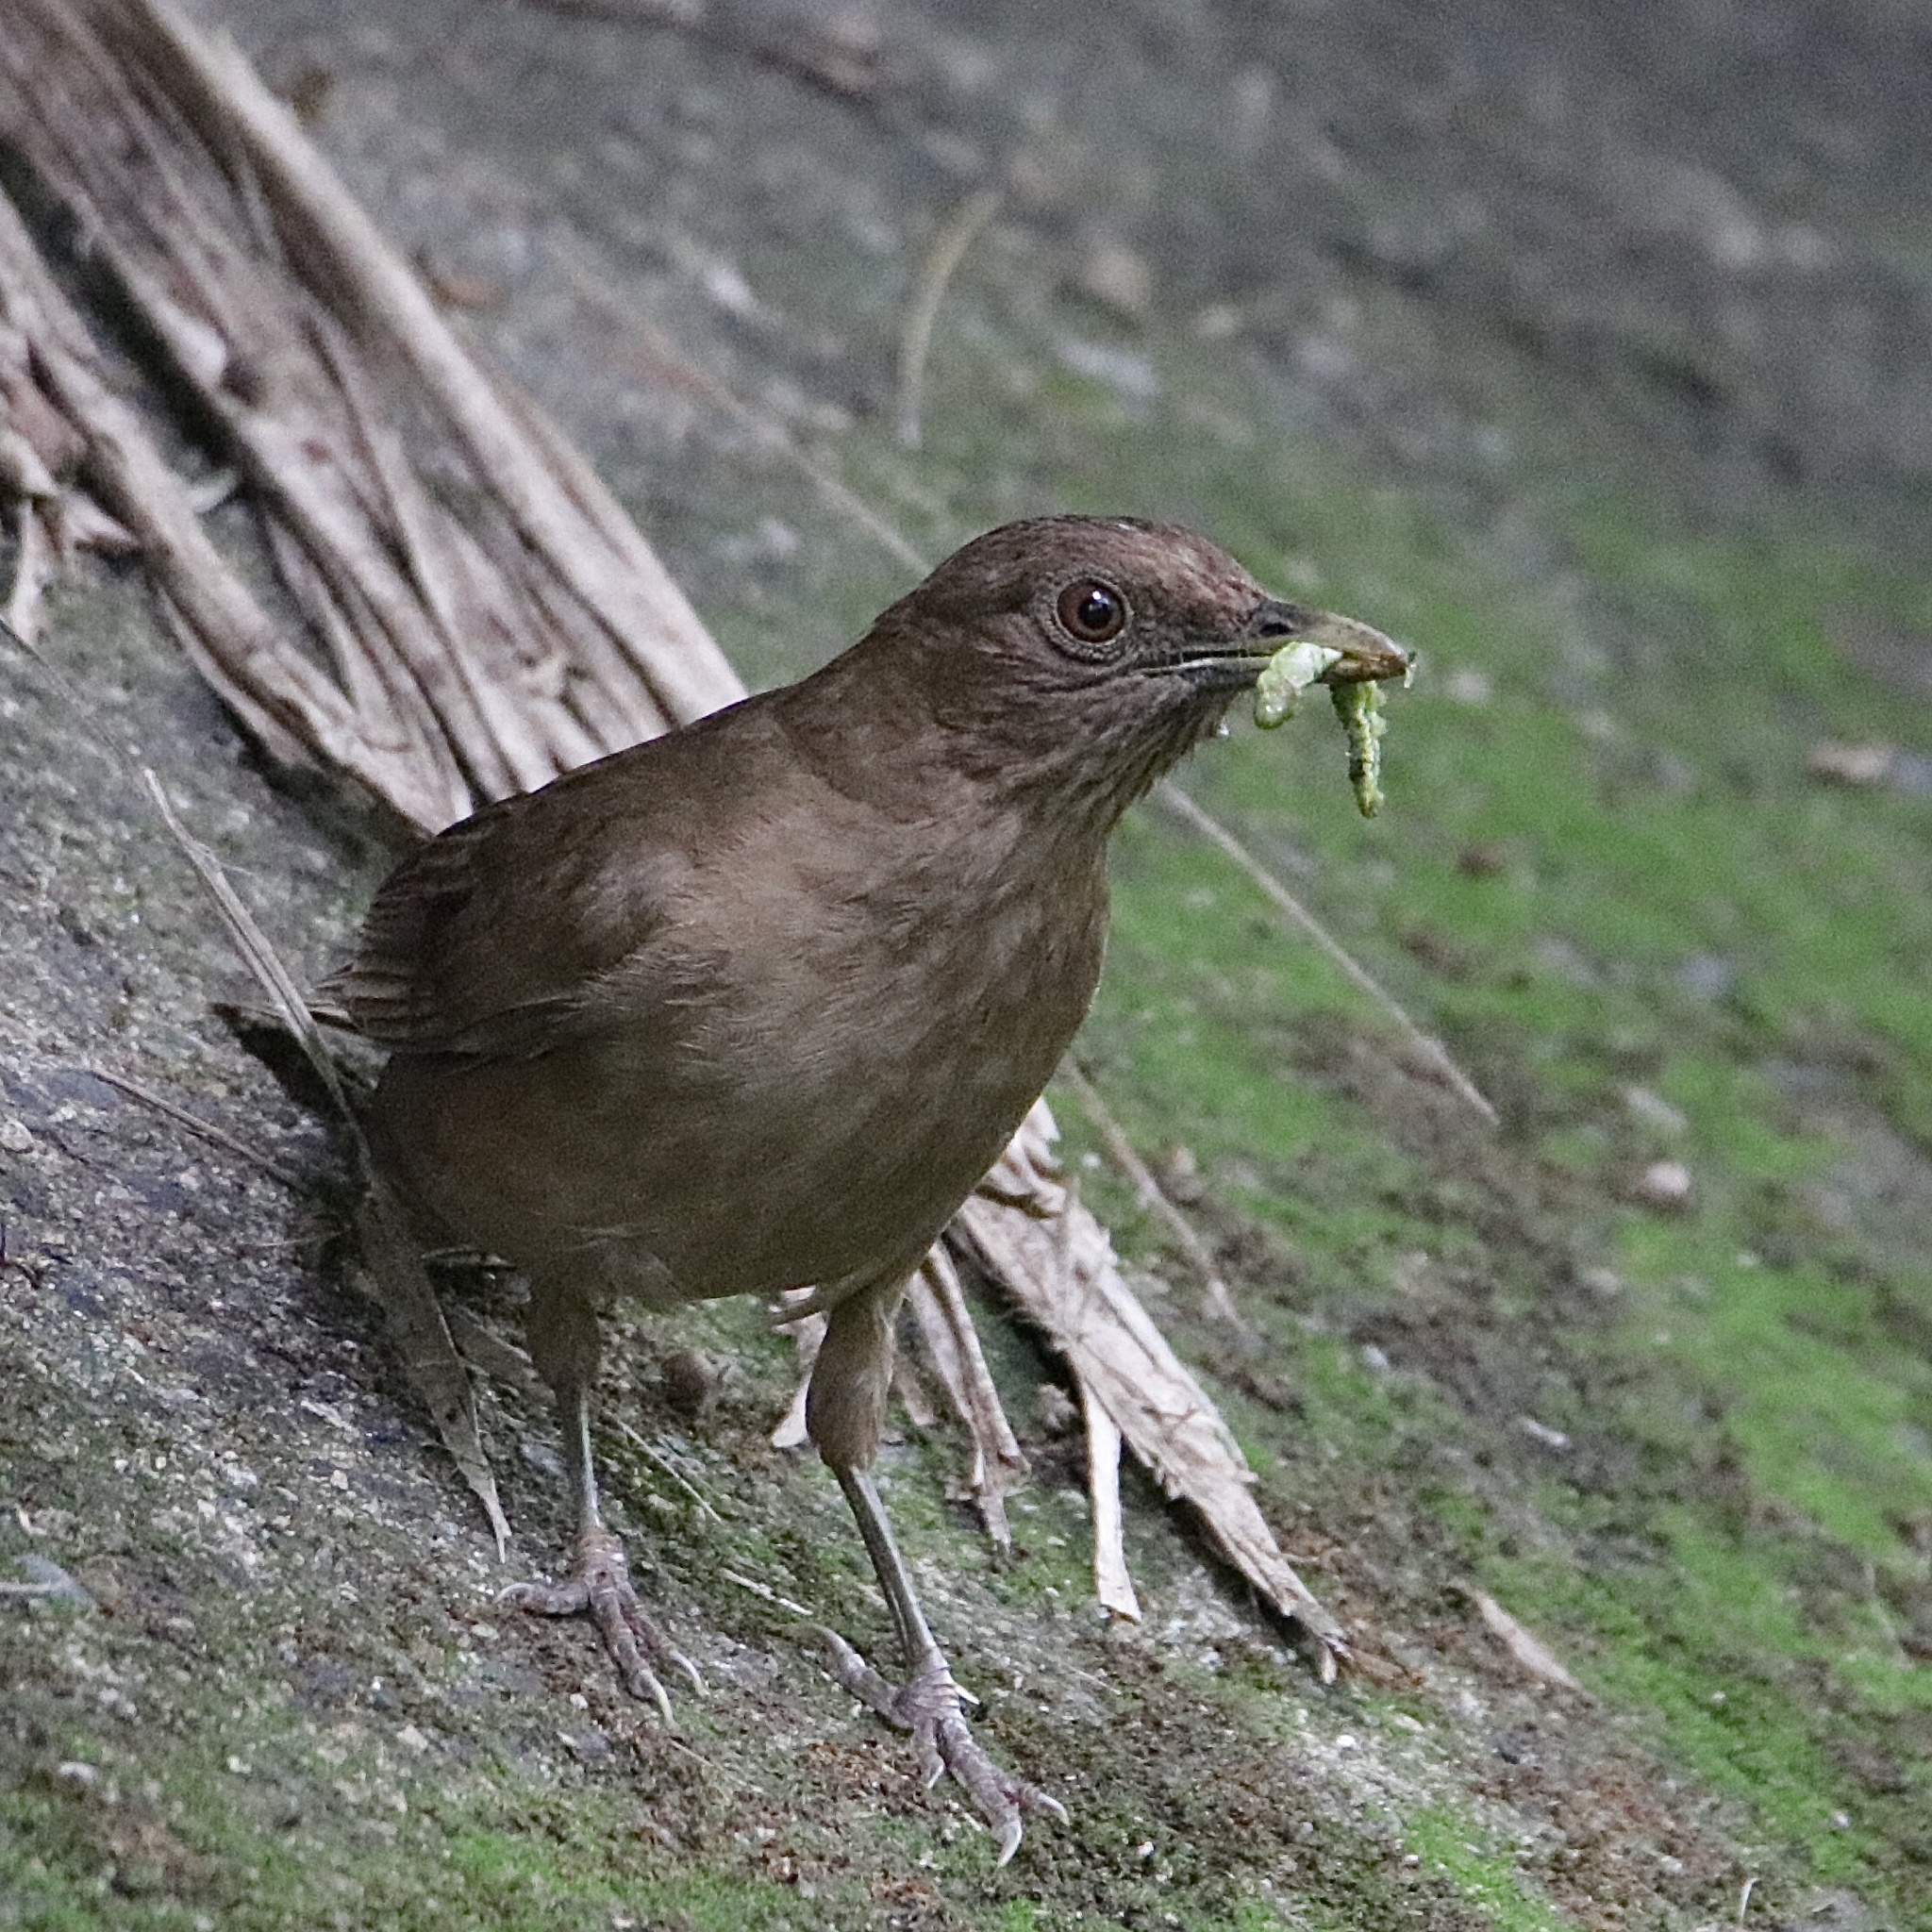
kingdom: Animalia
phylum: Chordata
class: Aves
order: Passeriformes
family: Turdidae
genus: Turdus
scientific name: Turdus grayi
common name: Clay-colored thrush
